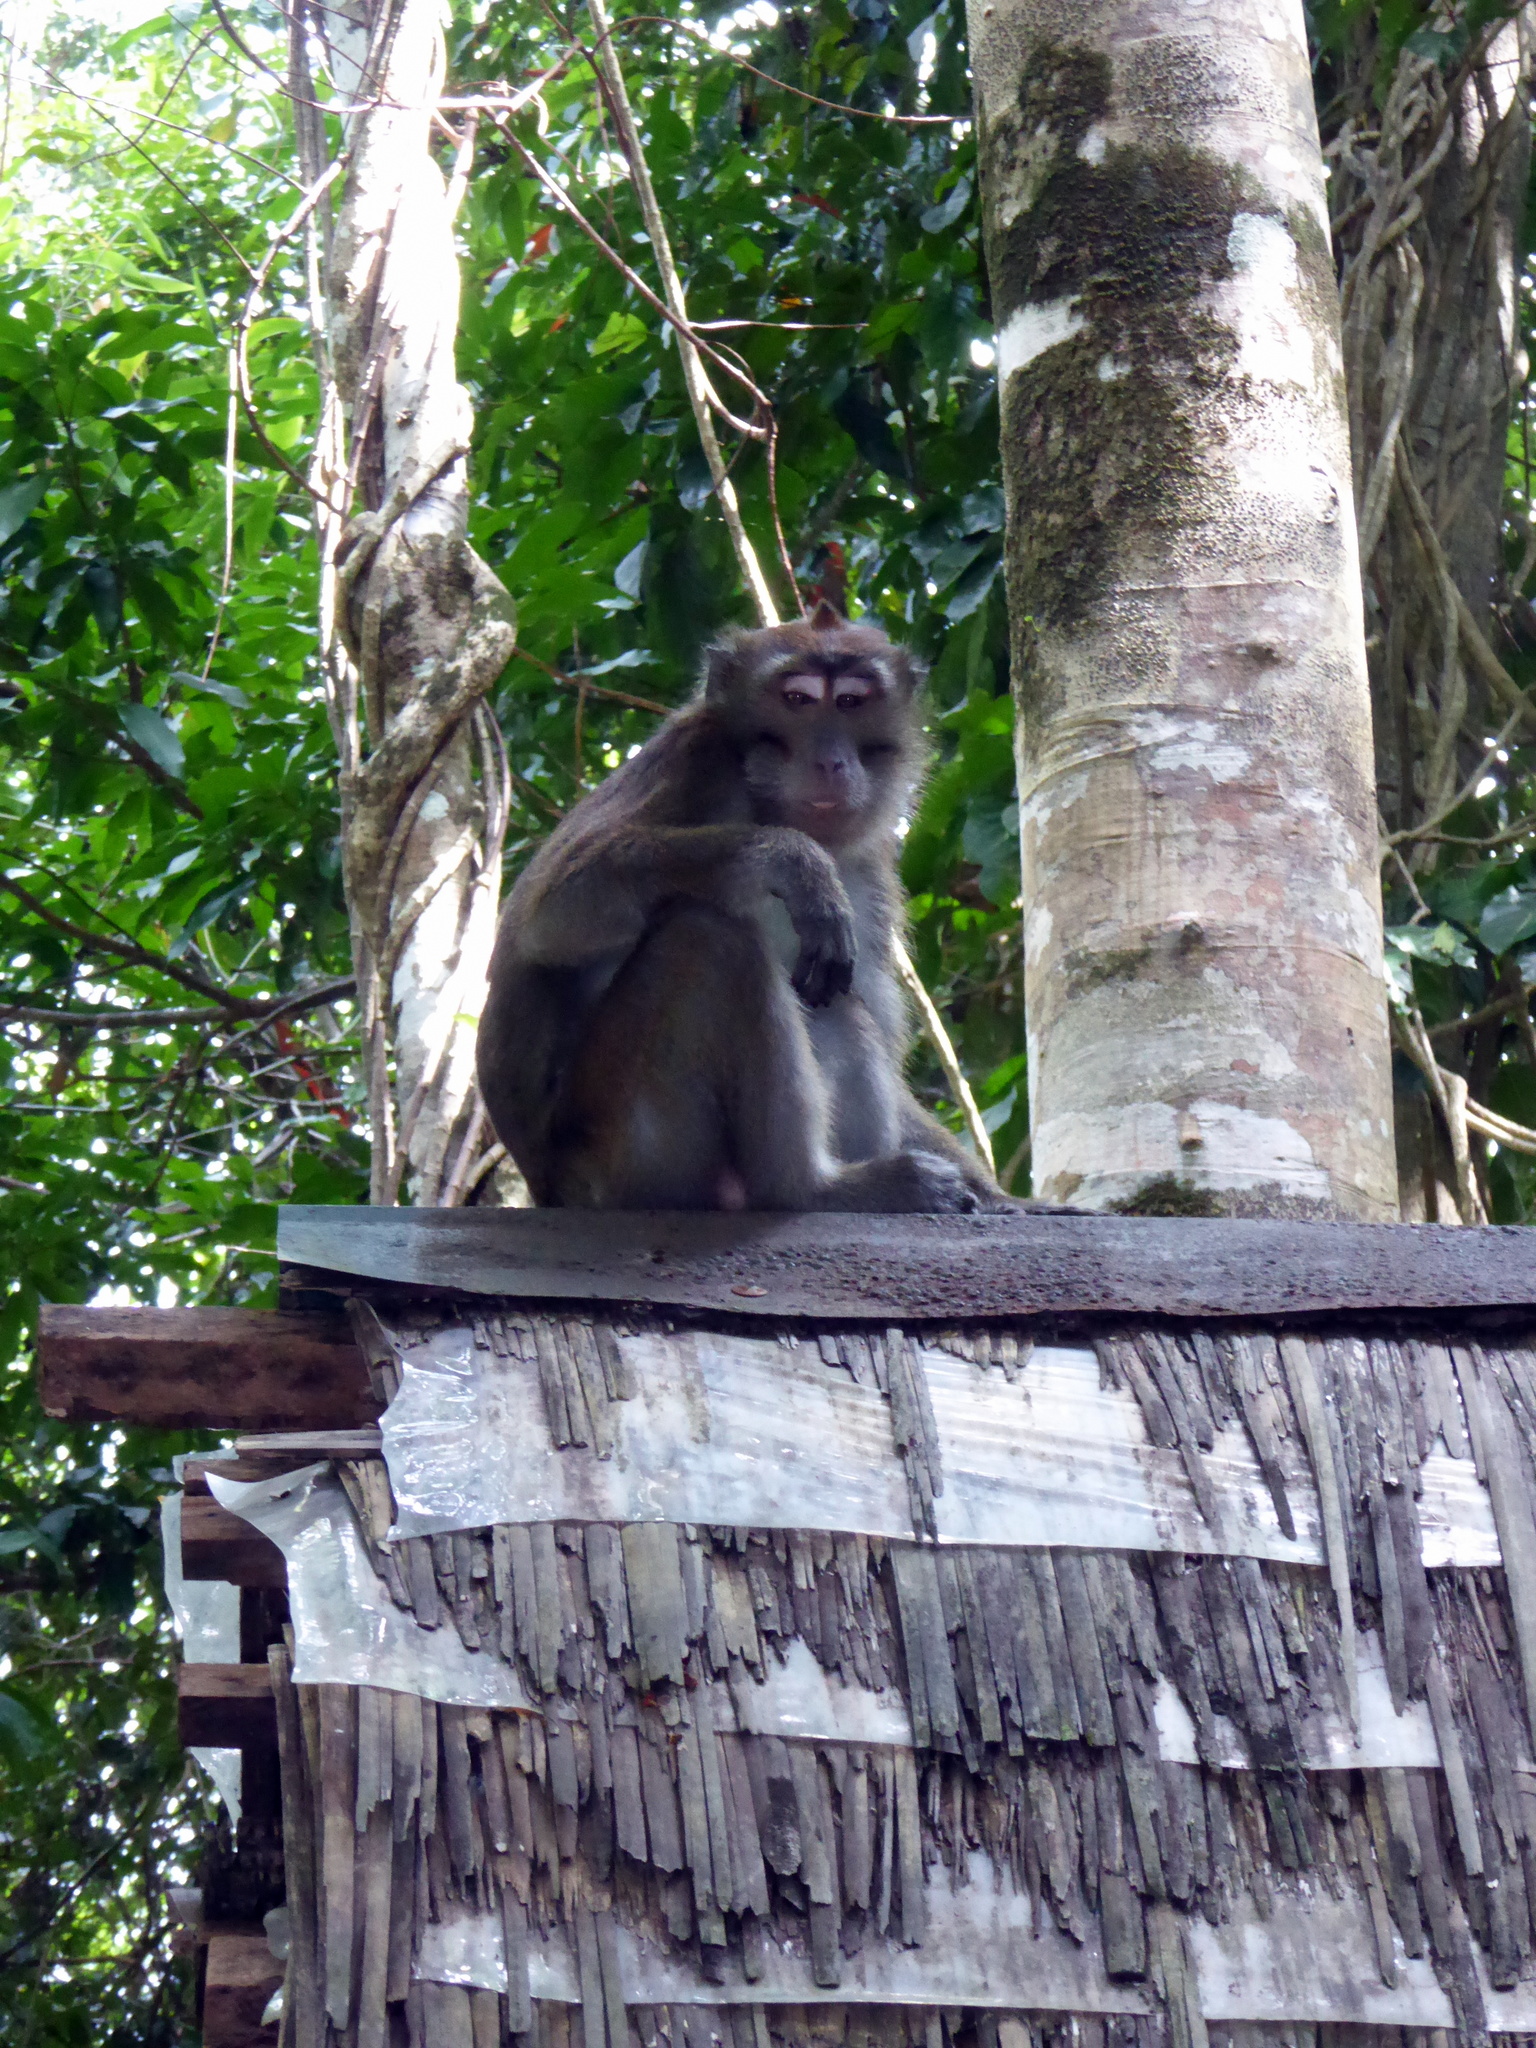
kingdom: Animalia
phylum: Chordata
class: Mammalia
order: Primates
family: Cercopithecidae
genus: Macaca
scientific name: Macaca fascicularis
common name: Crab-eating macaque
